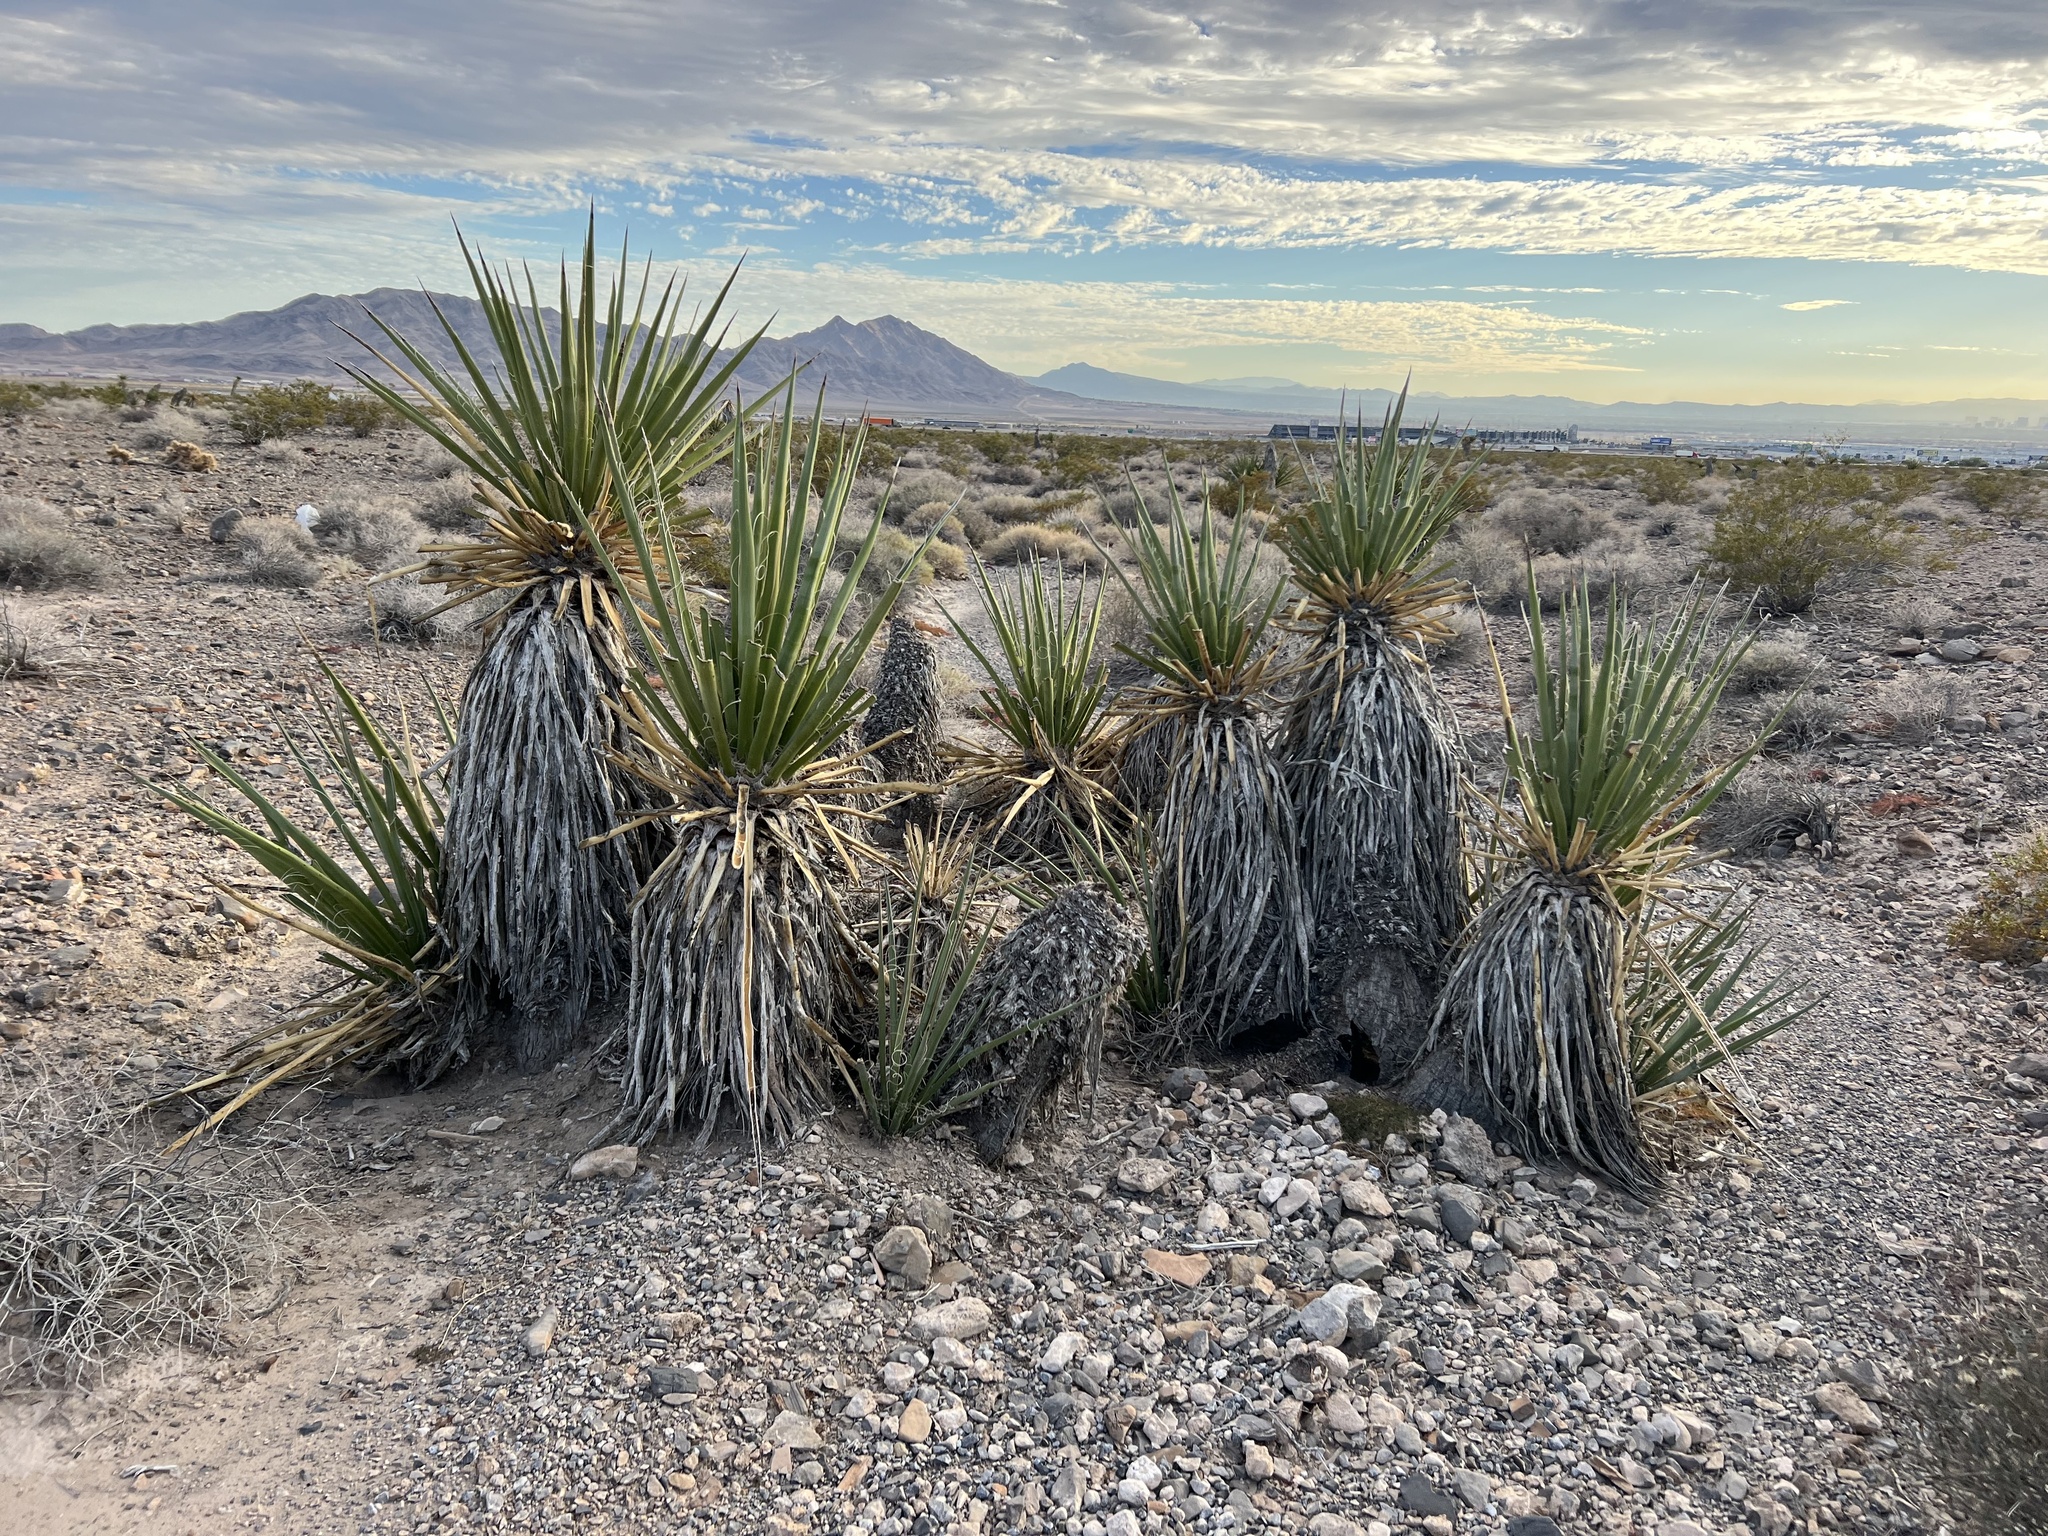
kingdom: Plantae
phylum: Tracheophyta
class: Liliopsida
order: Asparagales
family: Asparagaceae
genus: Yucca
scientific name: Yucca schidigera
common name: Mojave yucca
